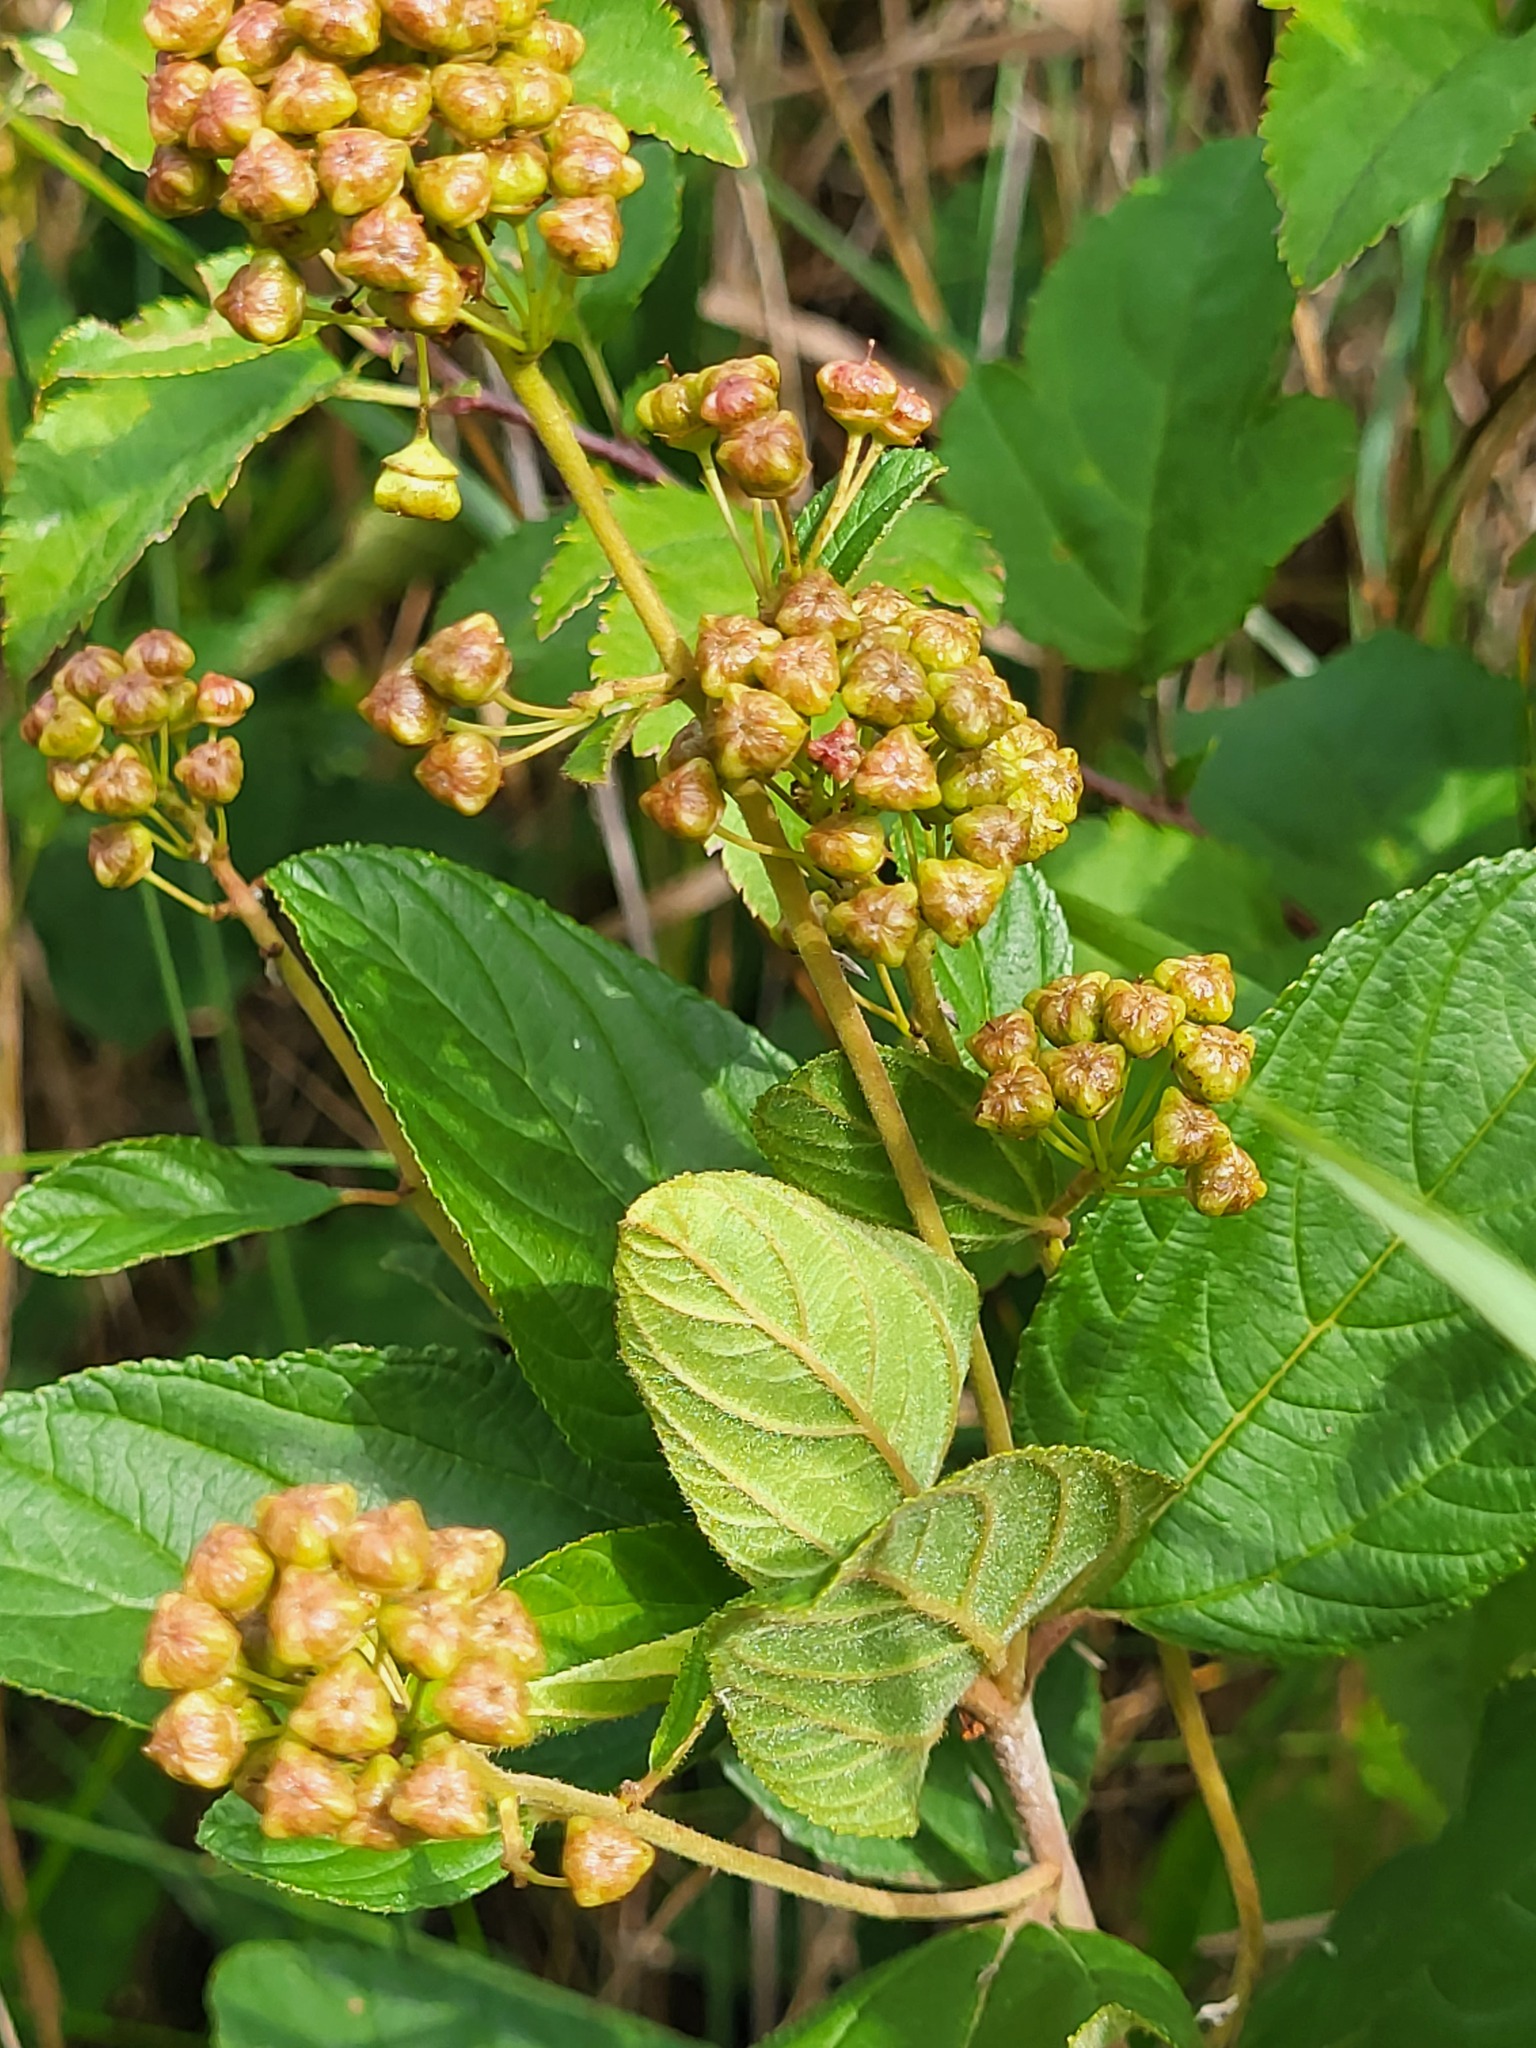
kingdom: Plantae
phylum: Tracheophyta
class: Magnoliopsida
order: Rosales
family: Rhamnaceae
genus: Ceanothus
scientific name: Ceanothus americanus
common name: Redroot
